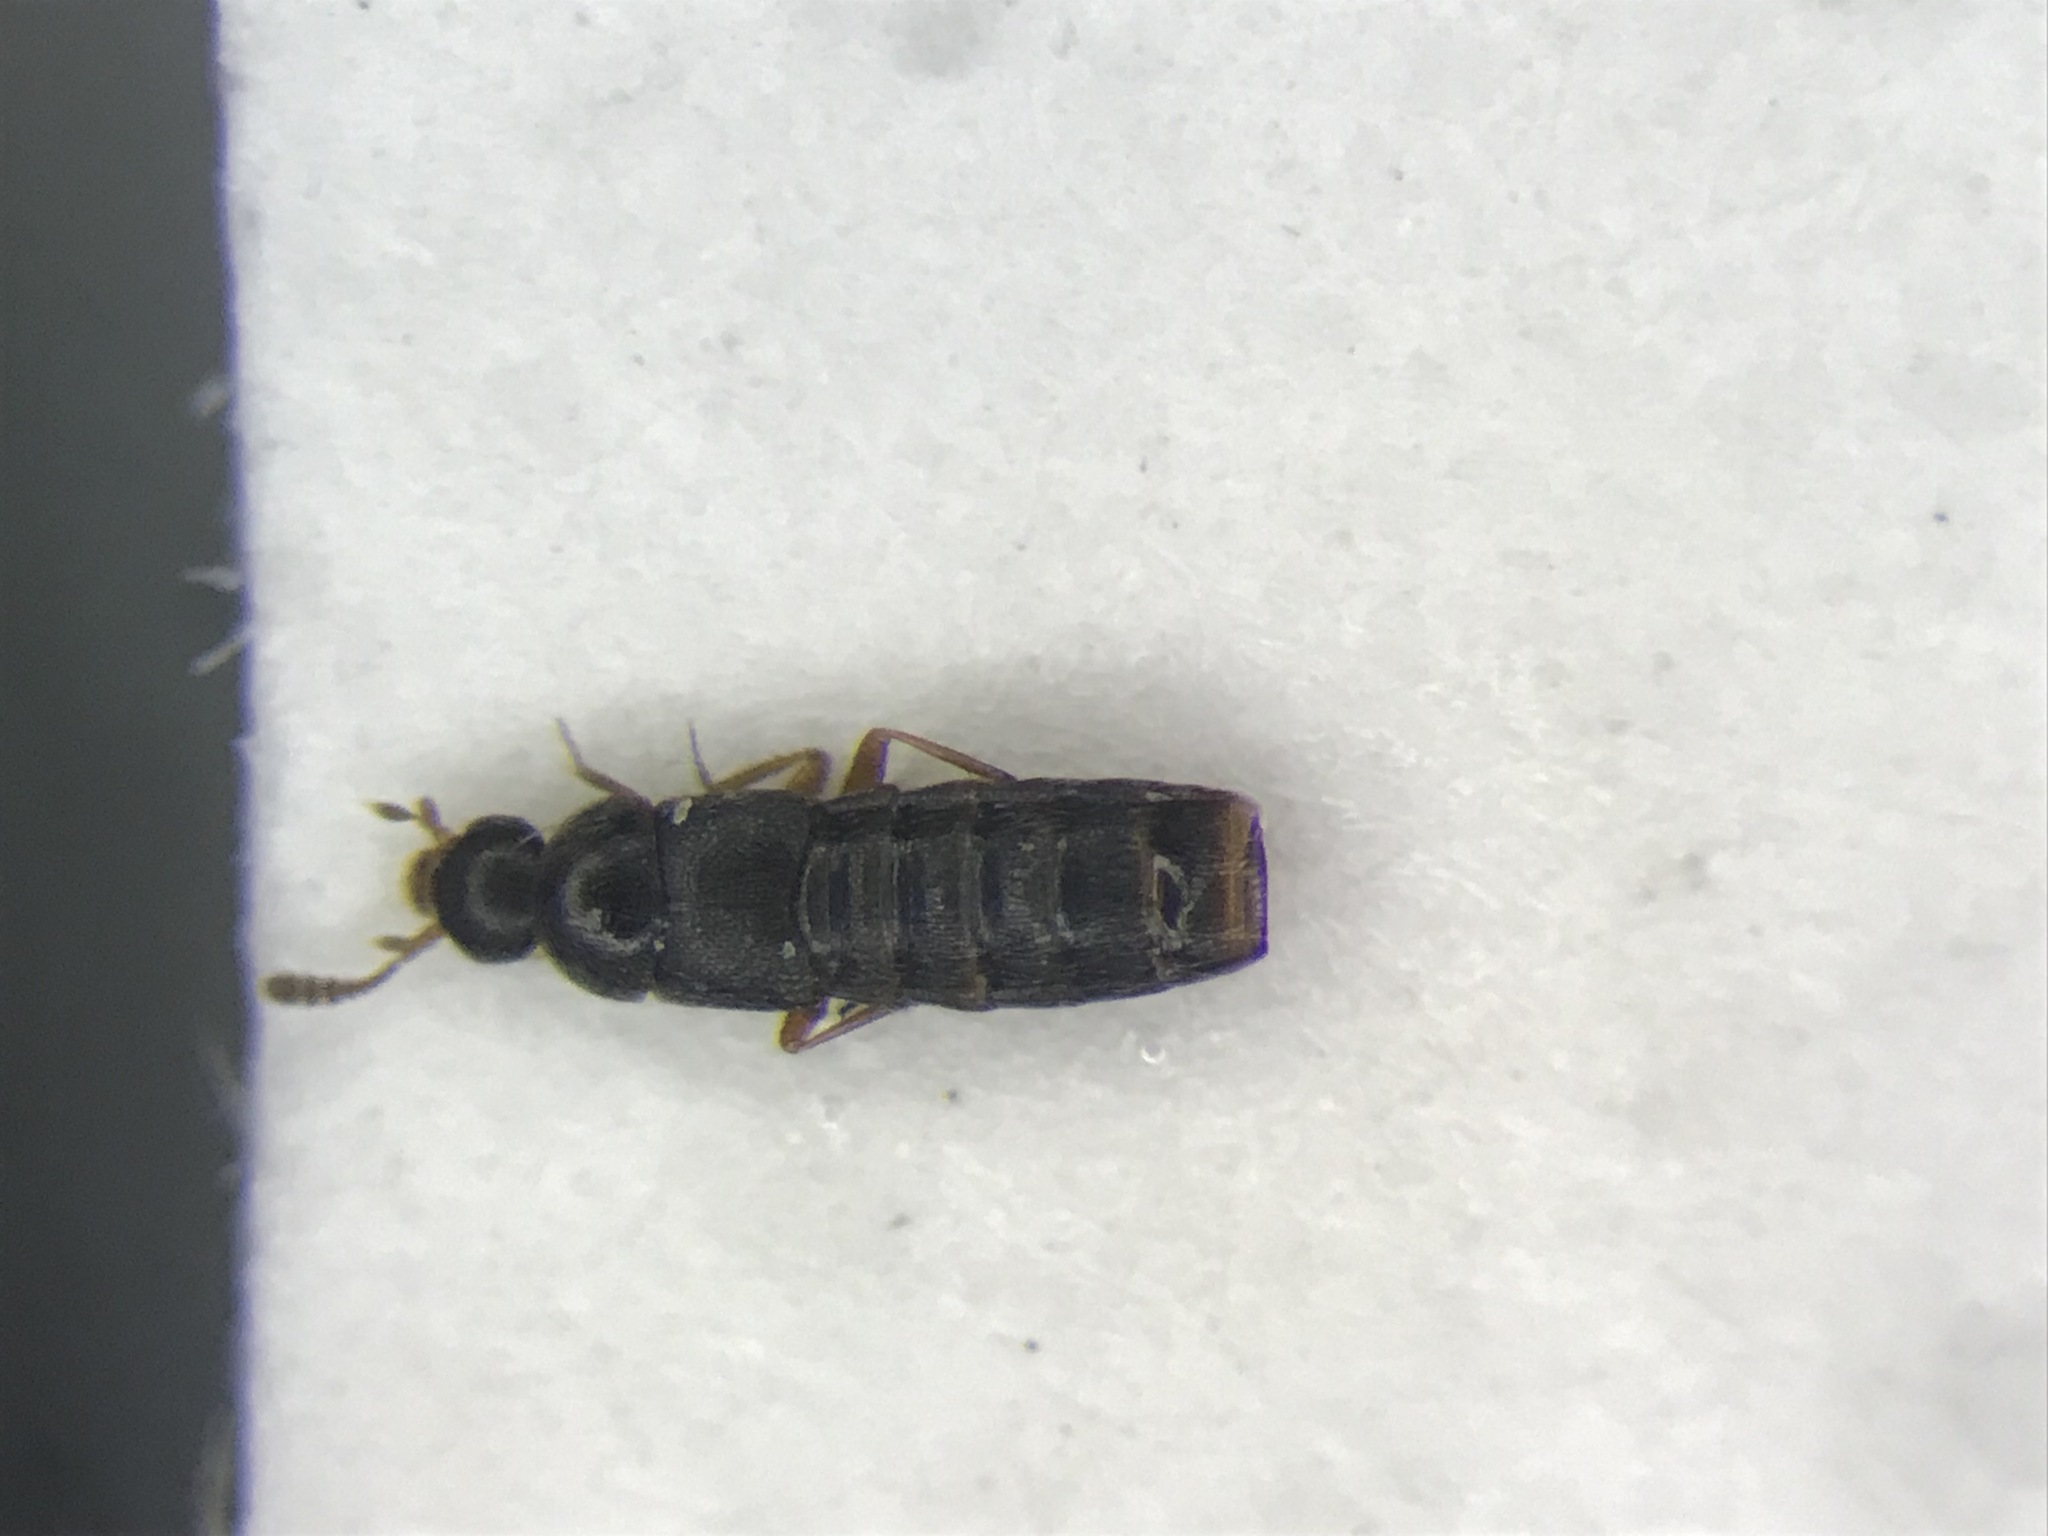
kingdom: Animalia
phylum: Arthropoda
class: Insecta
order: Coleoptera
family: Staphylinidae
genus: Oligota
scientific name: Oligota pusillima
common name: Rove beetle
